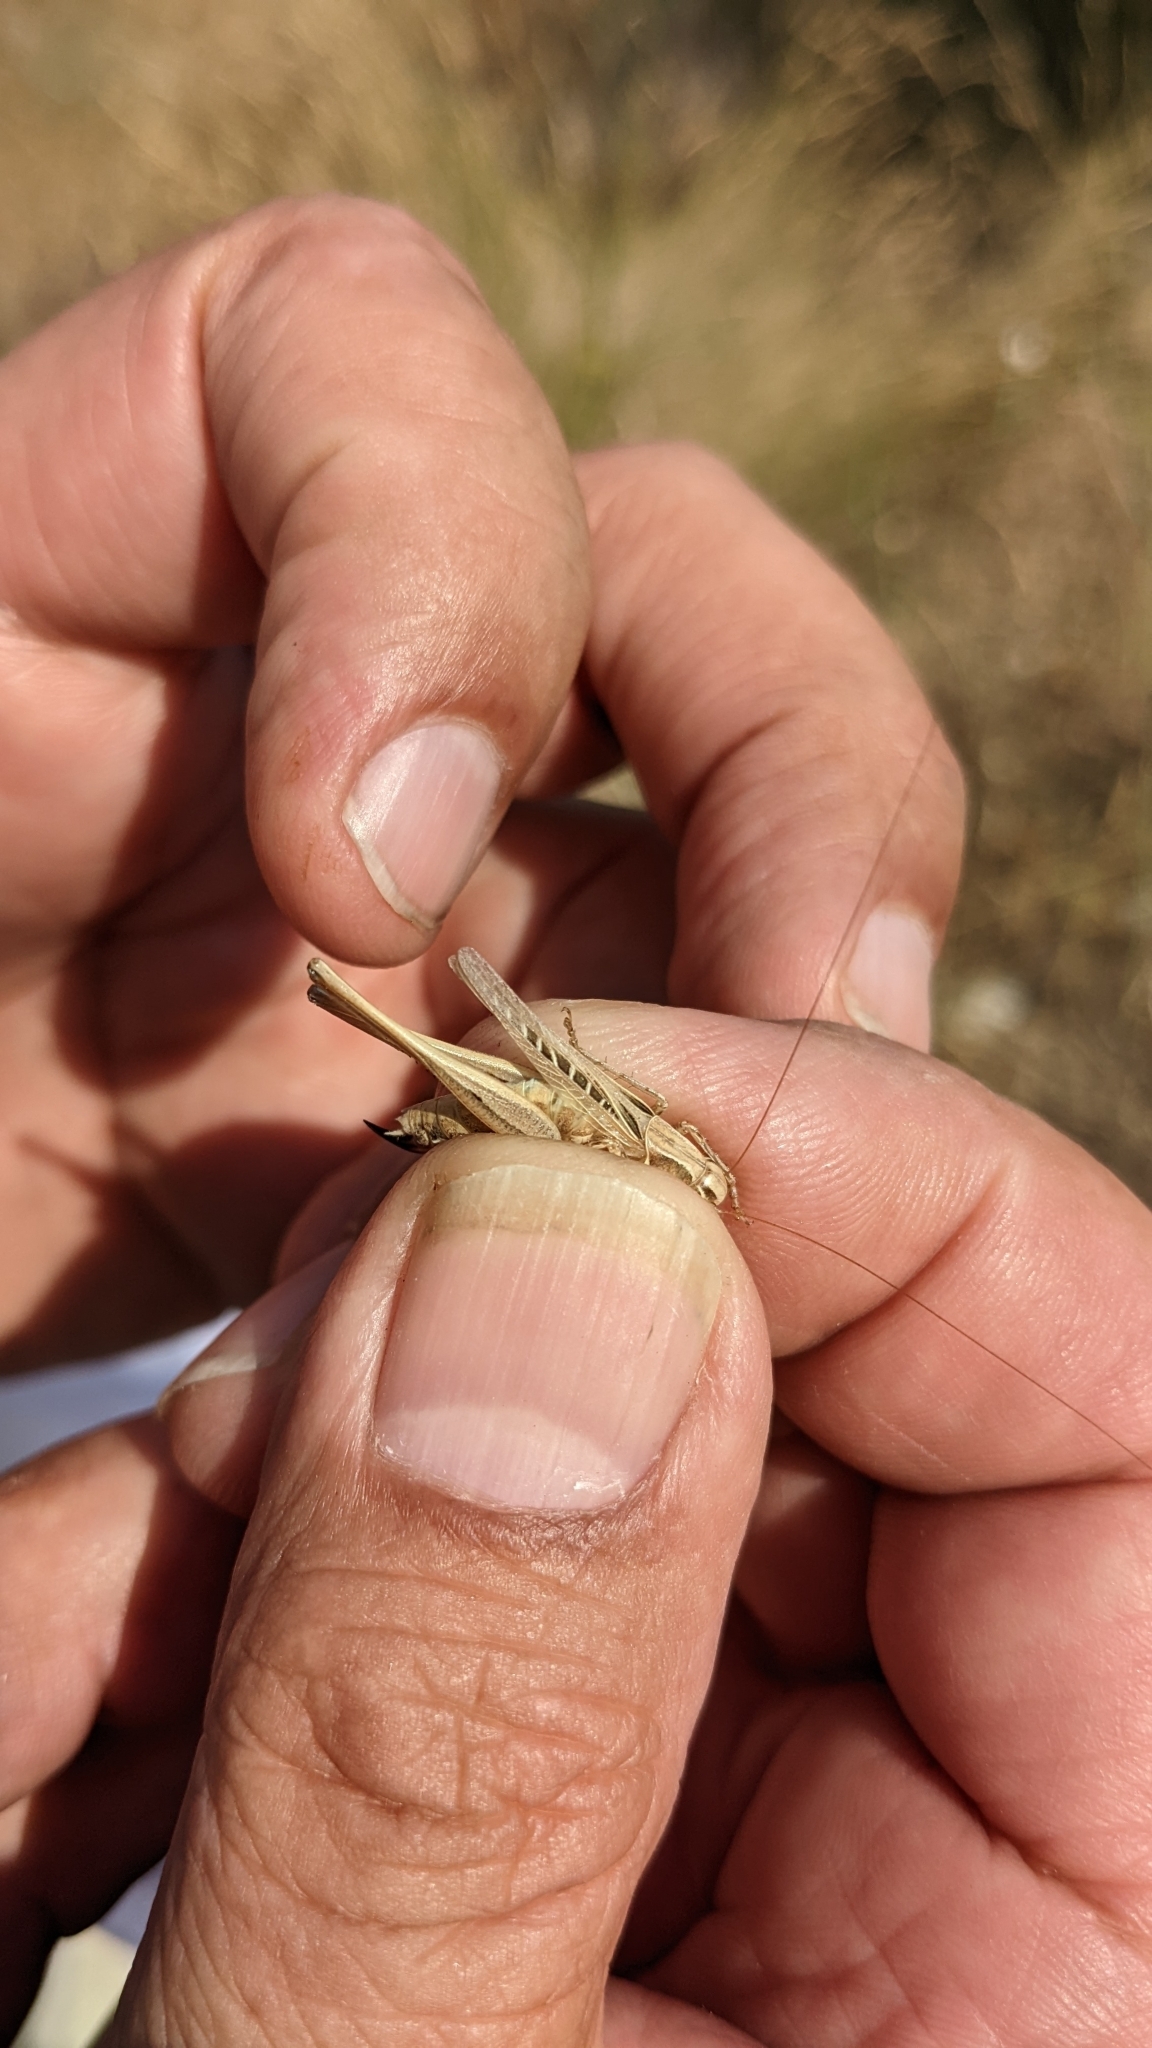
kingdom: Animalia
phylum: Arthropoda
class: Insecta
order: Orthoptera
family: Tettigoniidae
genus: Tessellana
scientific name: Tessellana tessellata
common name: Grasshopper
